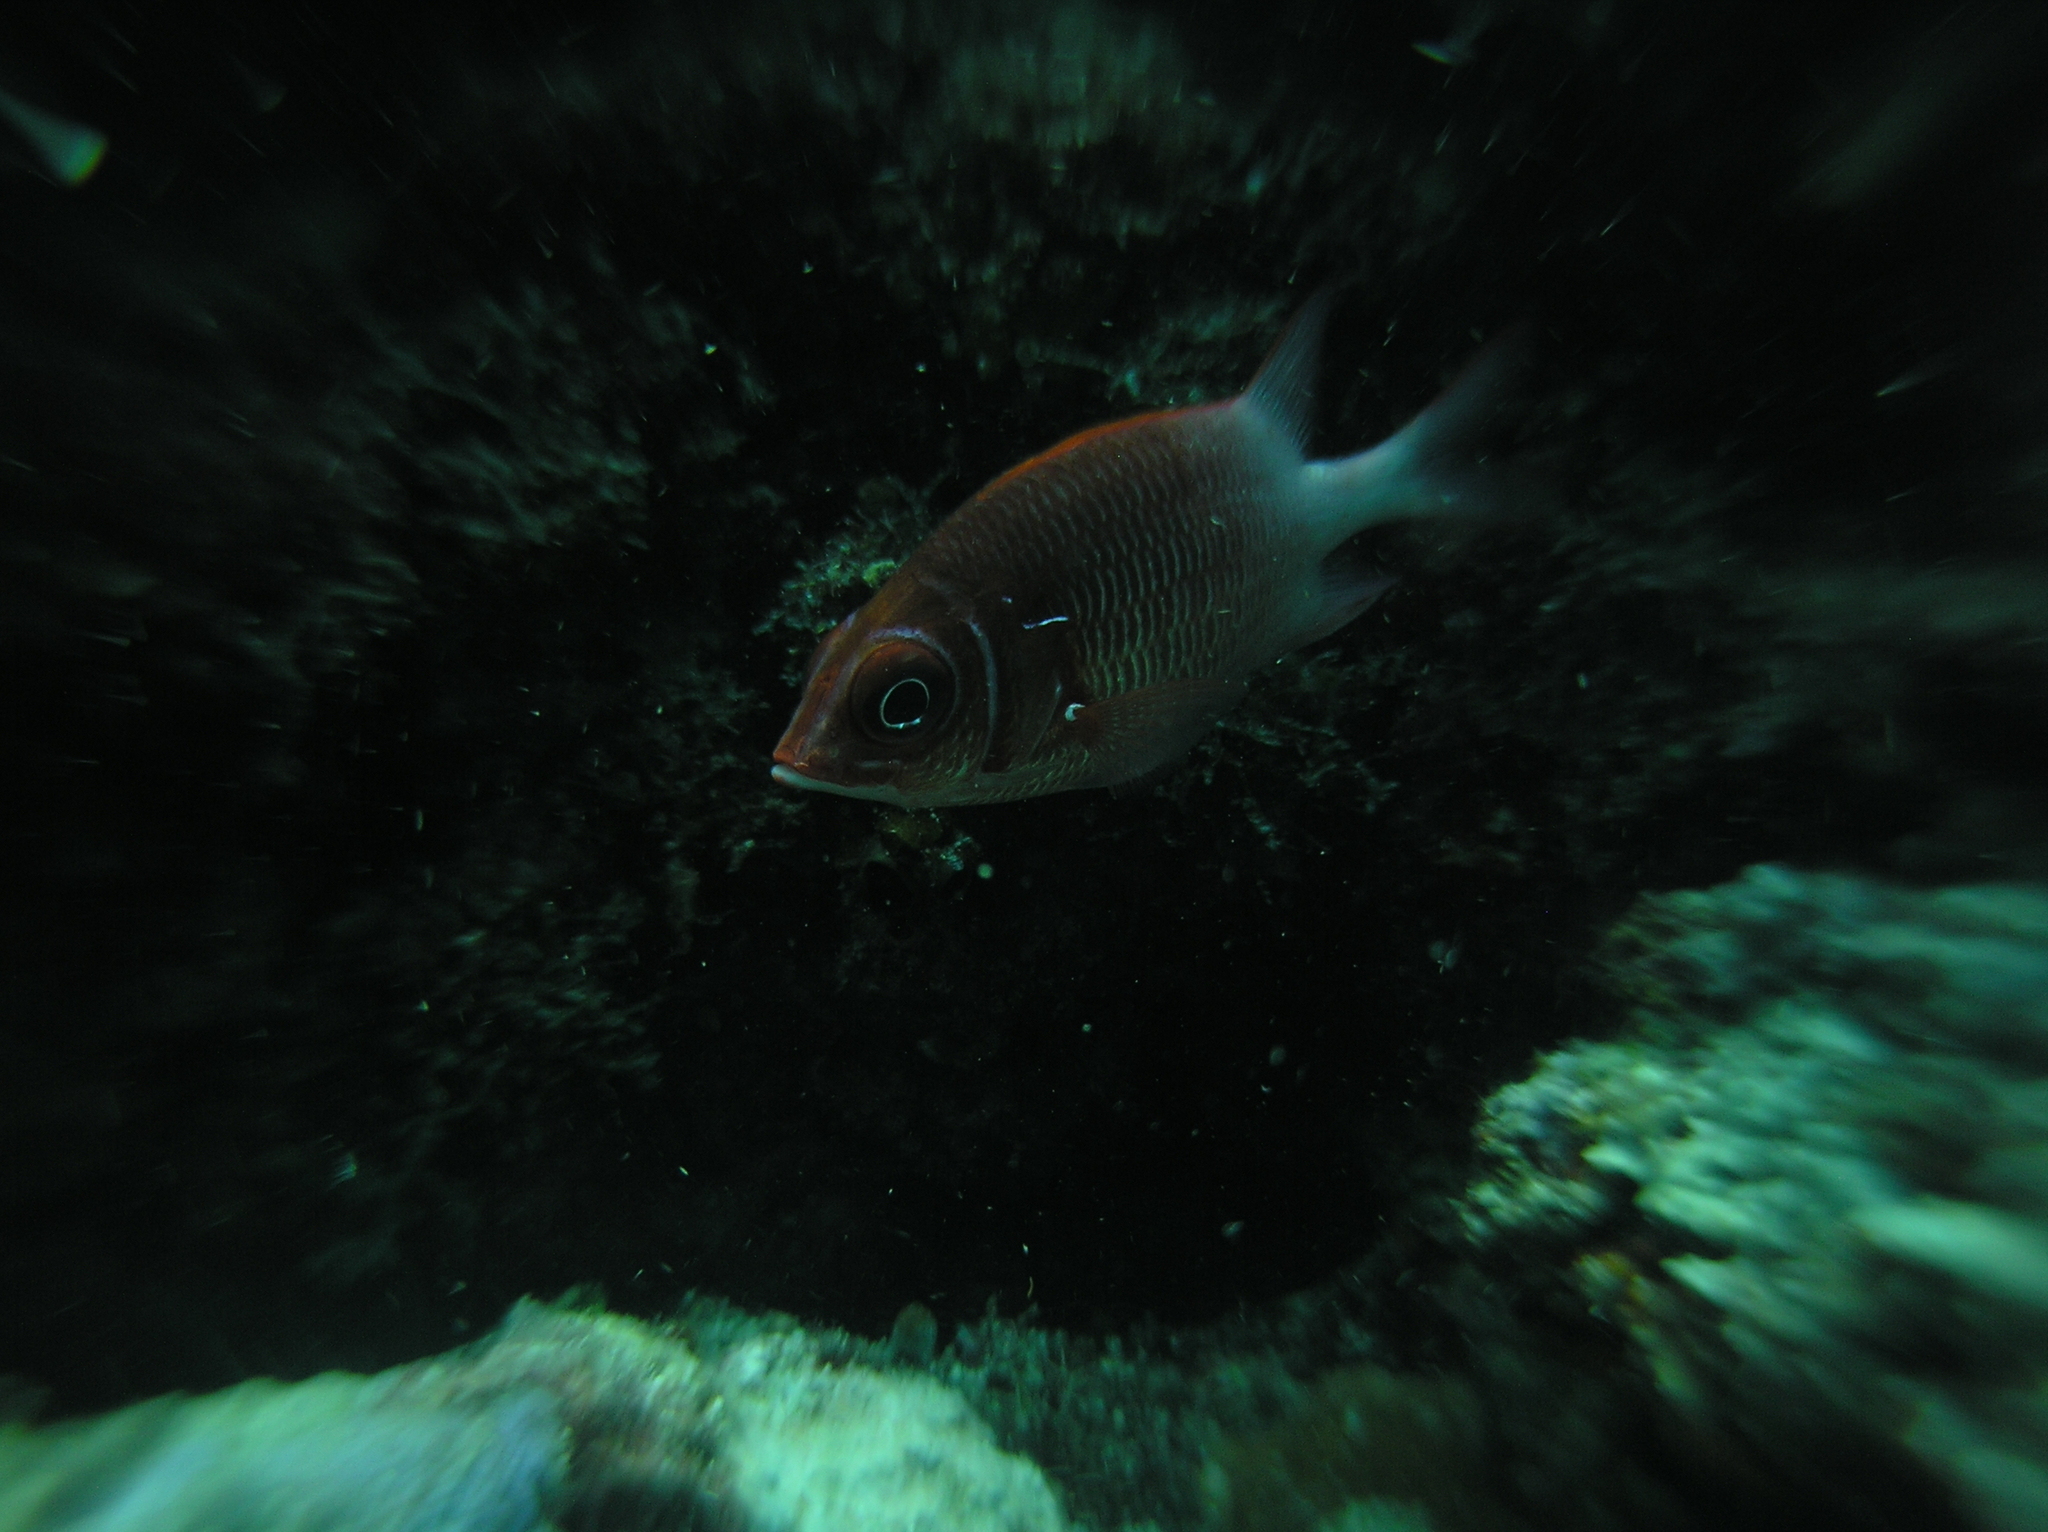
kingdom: Animalia
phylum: Chordata
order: Beryciformes
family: Holocentridae
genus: Sargocentron
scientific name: Sargocentron caudimaculatum
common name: Fanfin soldier
